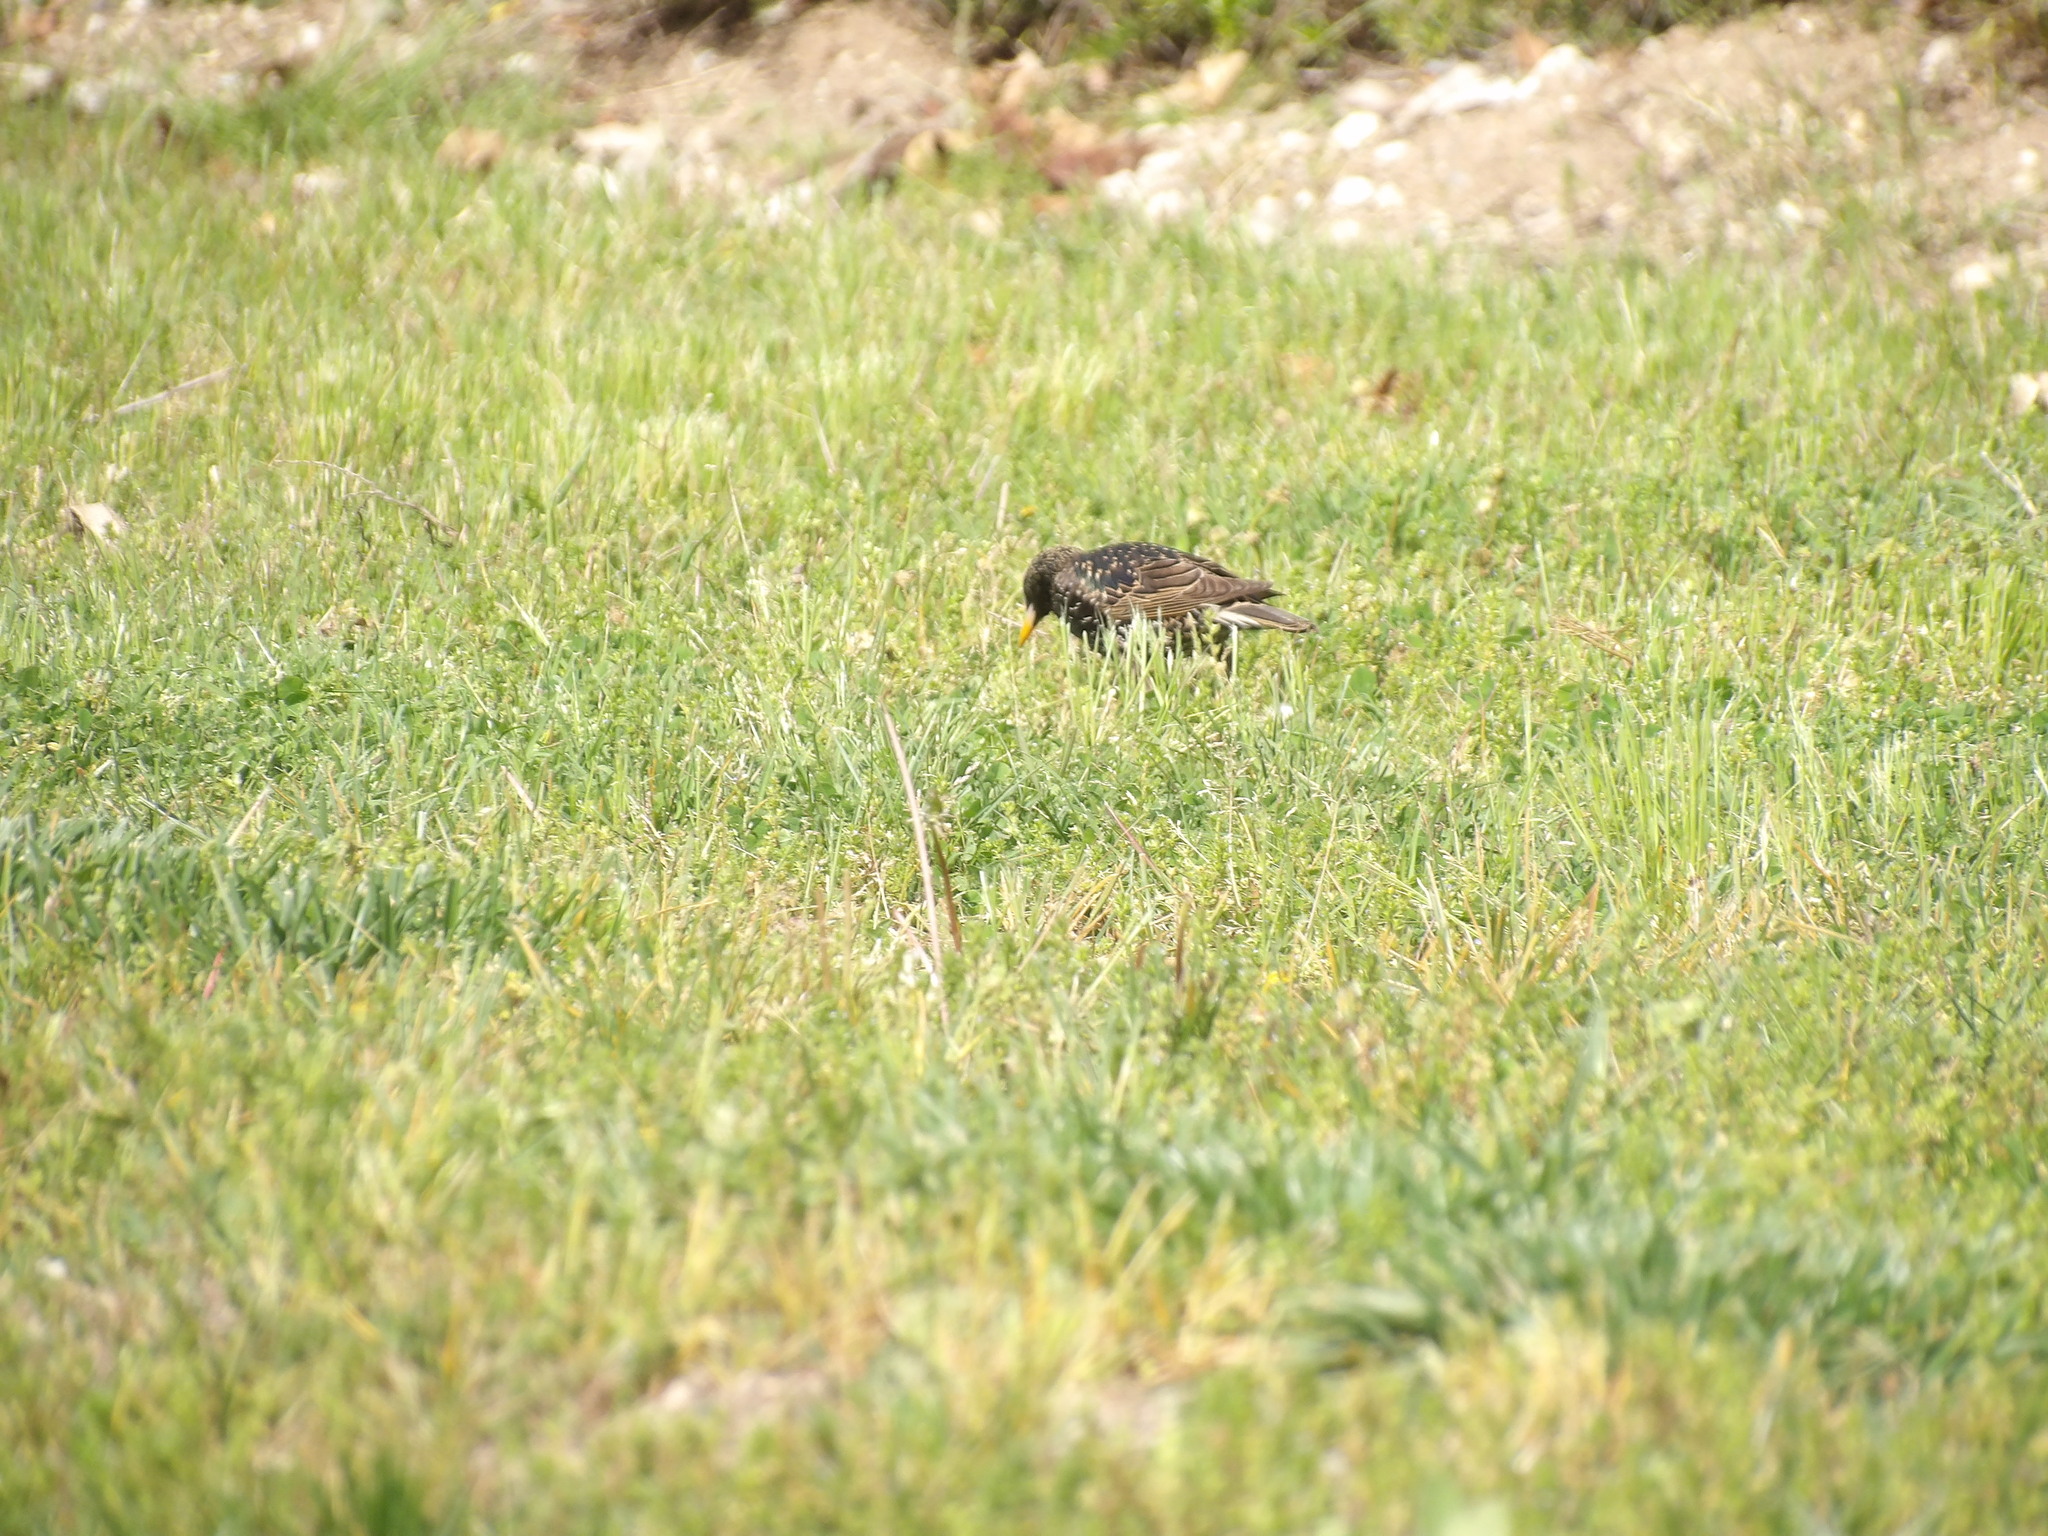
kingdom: Animalia
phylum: Chordata
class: Aves
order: Passeriformes
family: Sturnidae
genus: Sturnus
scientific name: Sturnus vulgaris
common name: Common starling
